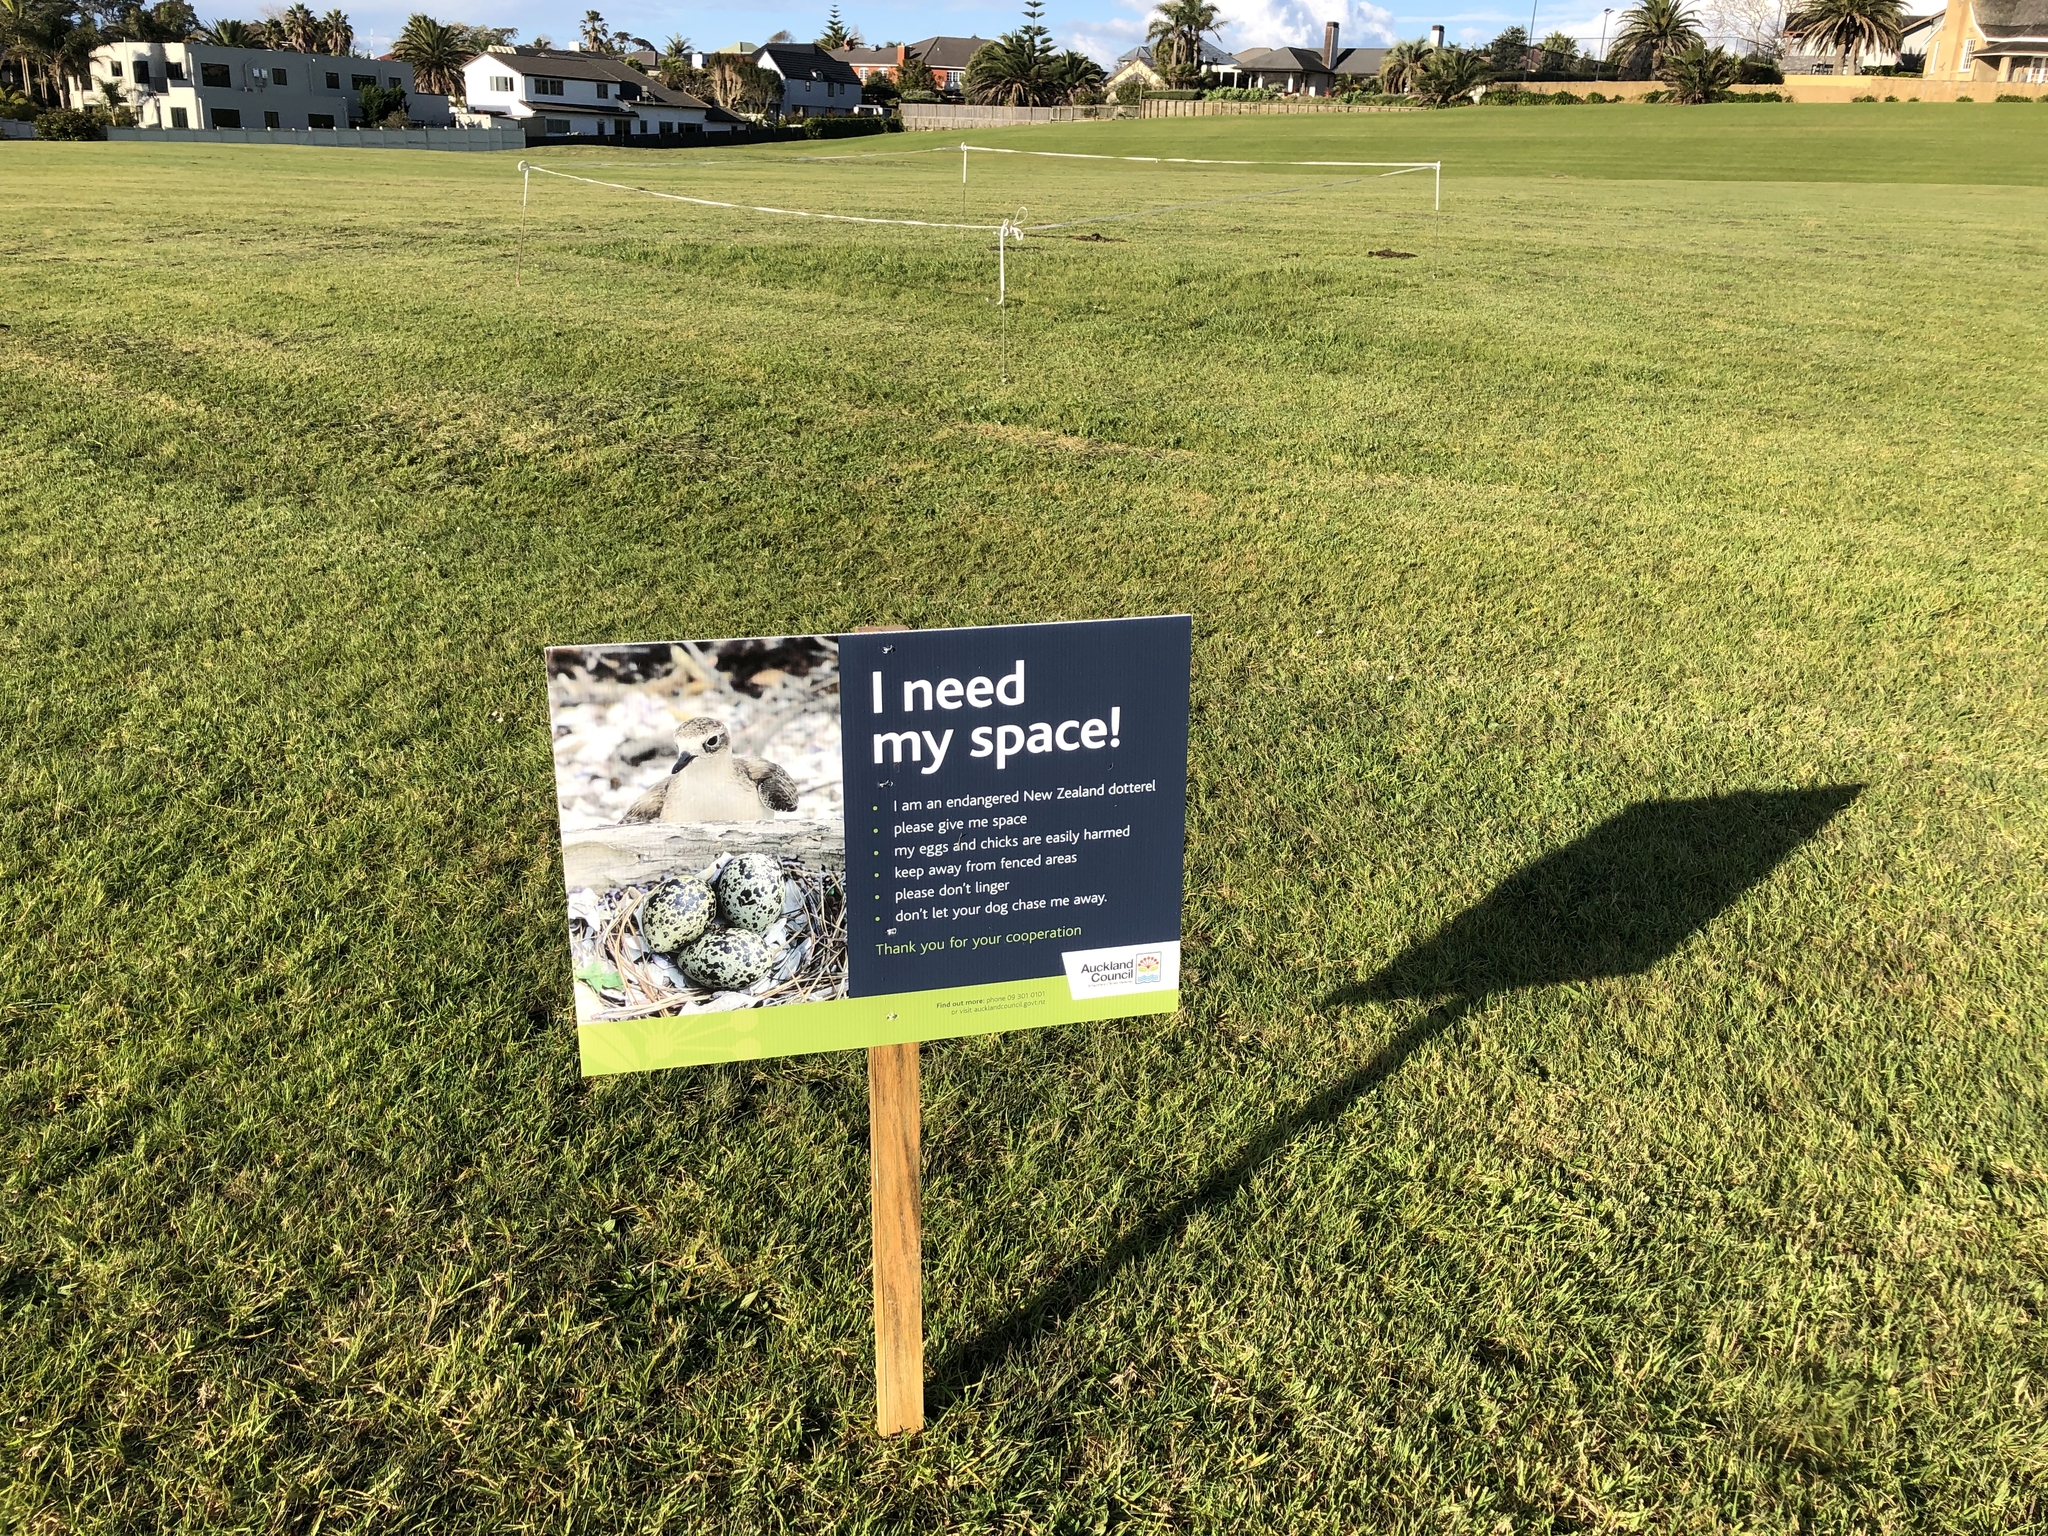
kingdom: Animalia
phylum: Chordata
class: Aves
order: Charadriiformes
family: Charadriidae
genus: Anarhynchus
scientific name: Anarhynchus
